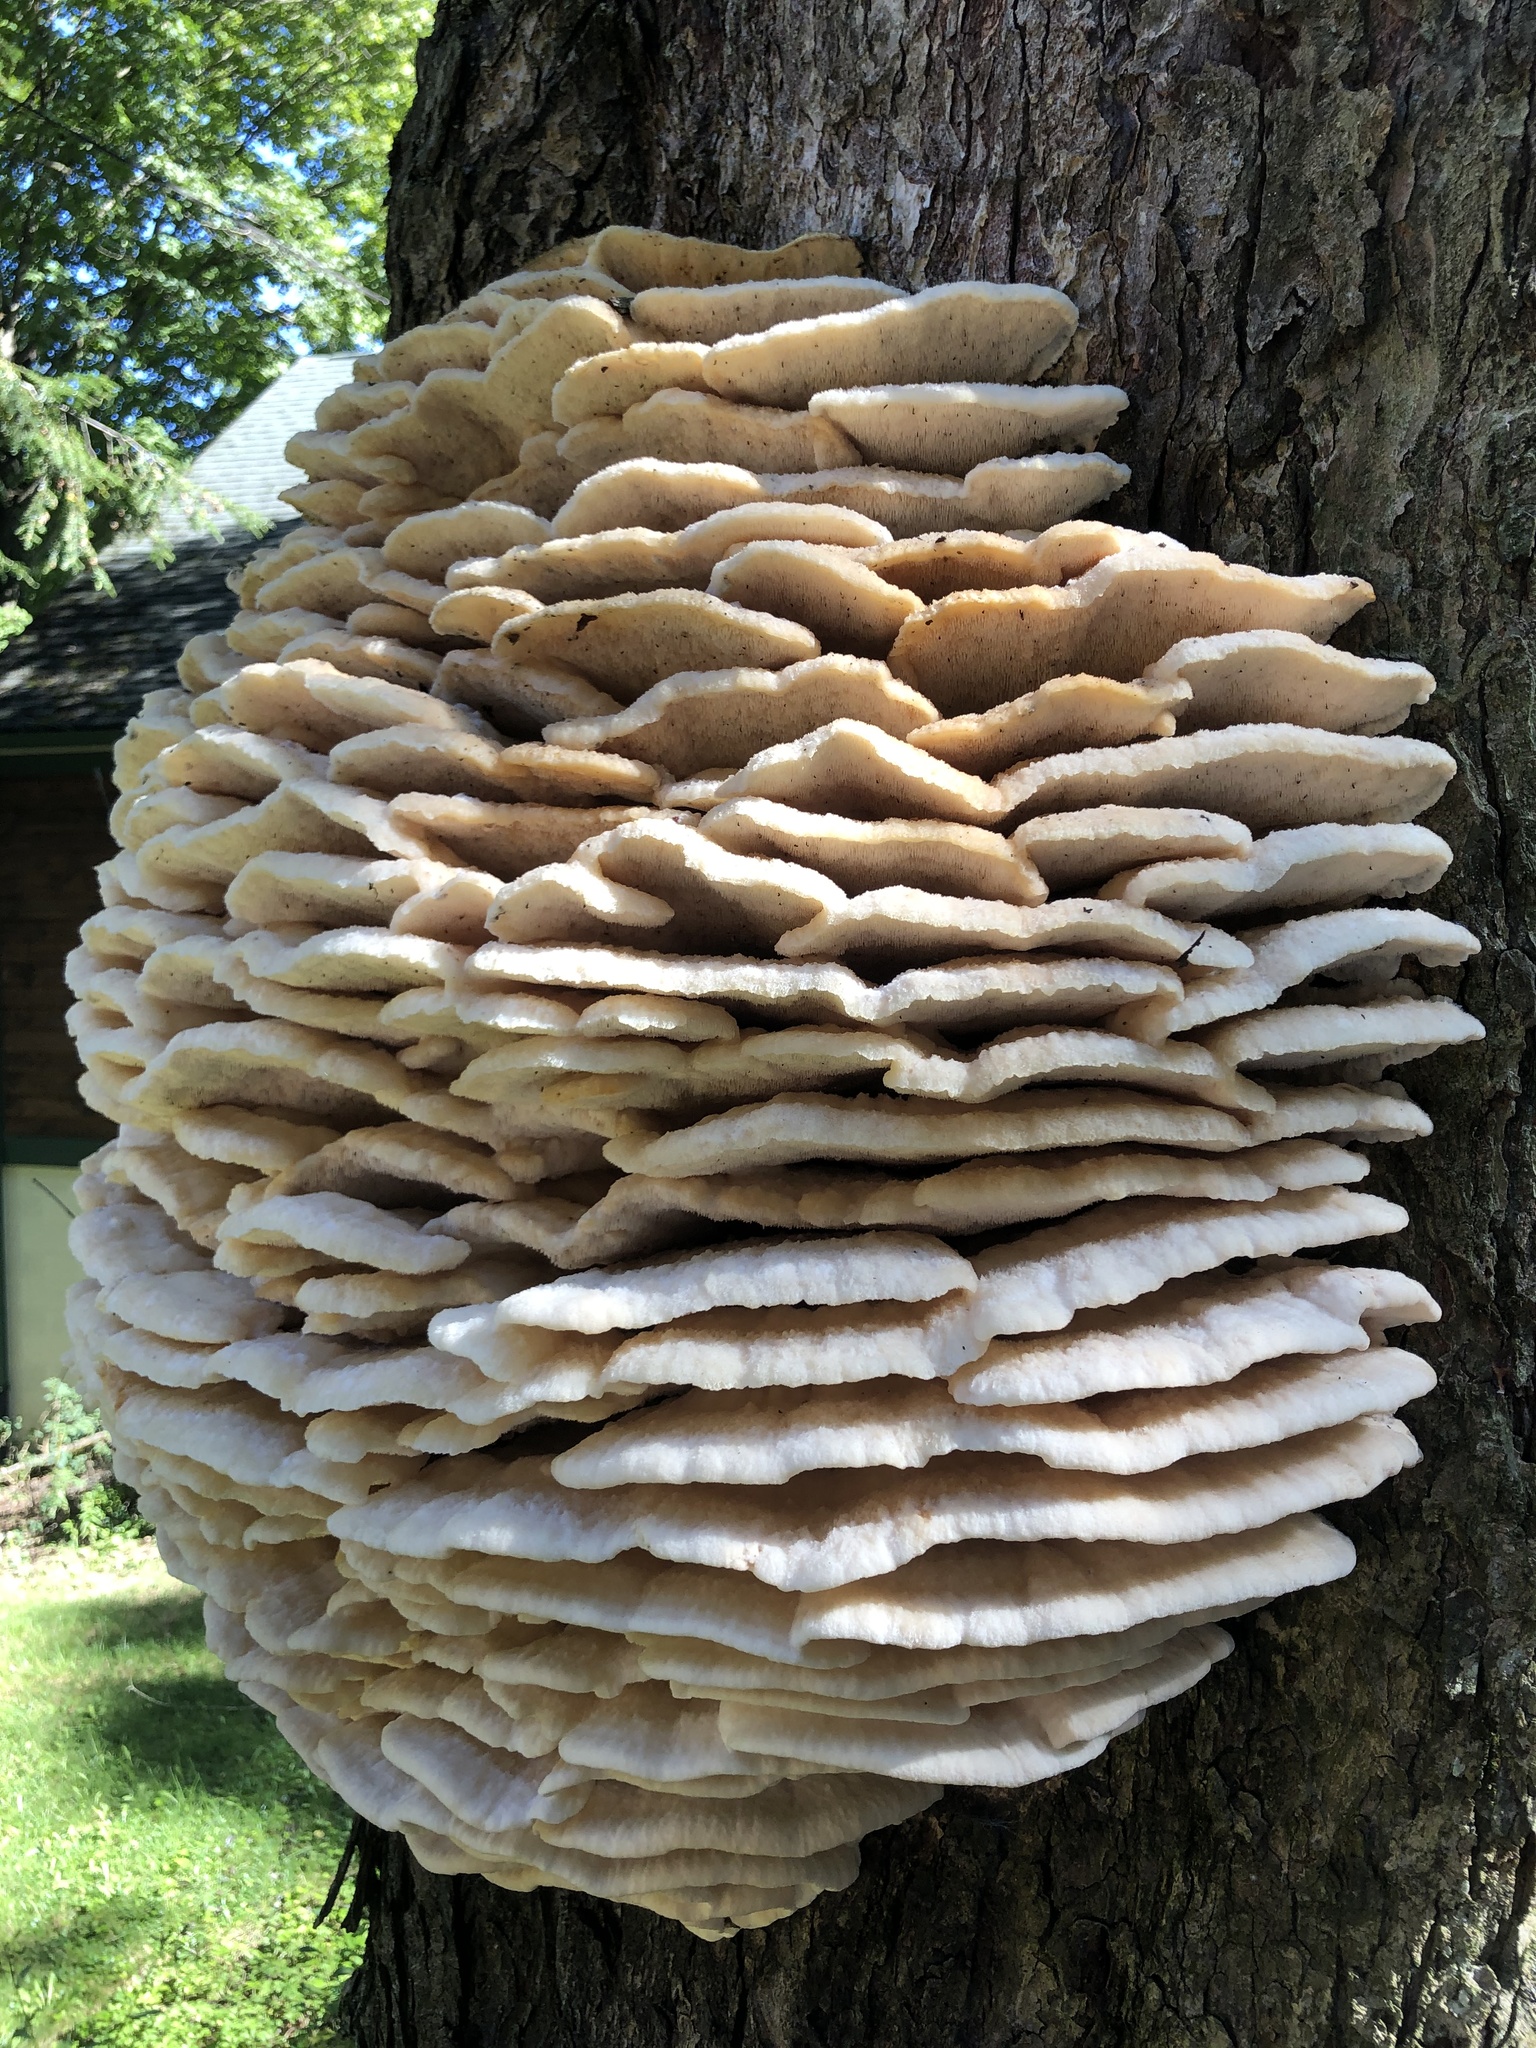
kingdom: Fungi
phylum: Basidiomycota
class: Agaricomycetes
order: Polyporales
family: Meruliaceae
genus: Climacodon
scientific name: Climacodon septentrionalis
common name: Northern tooth
